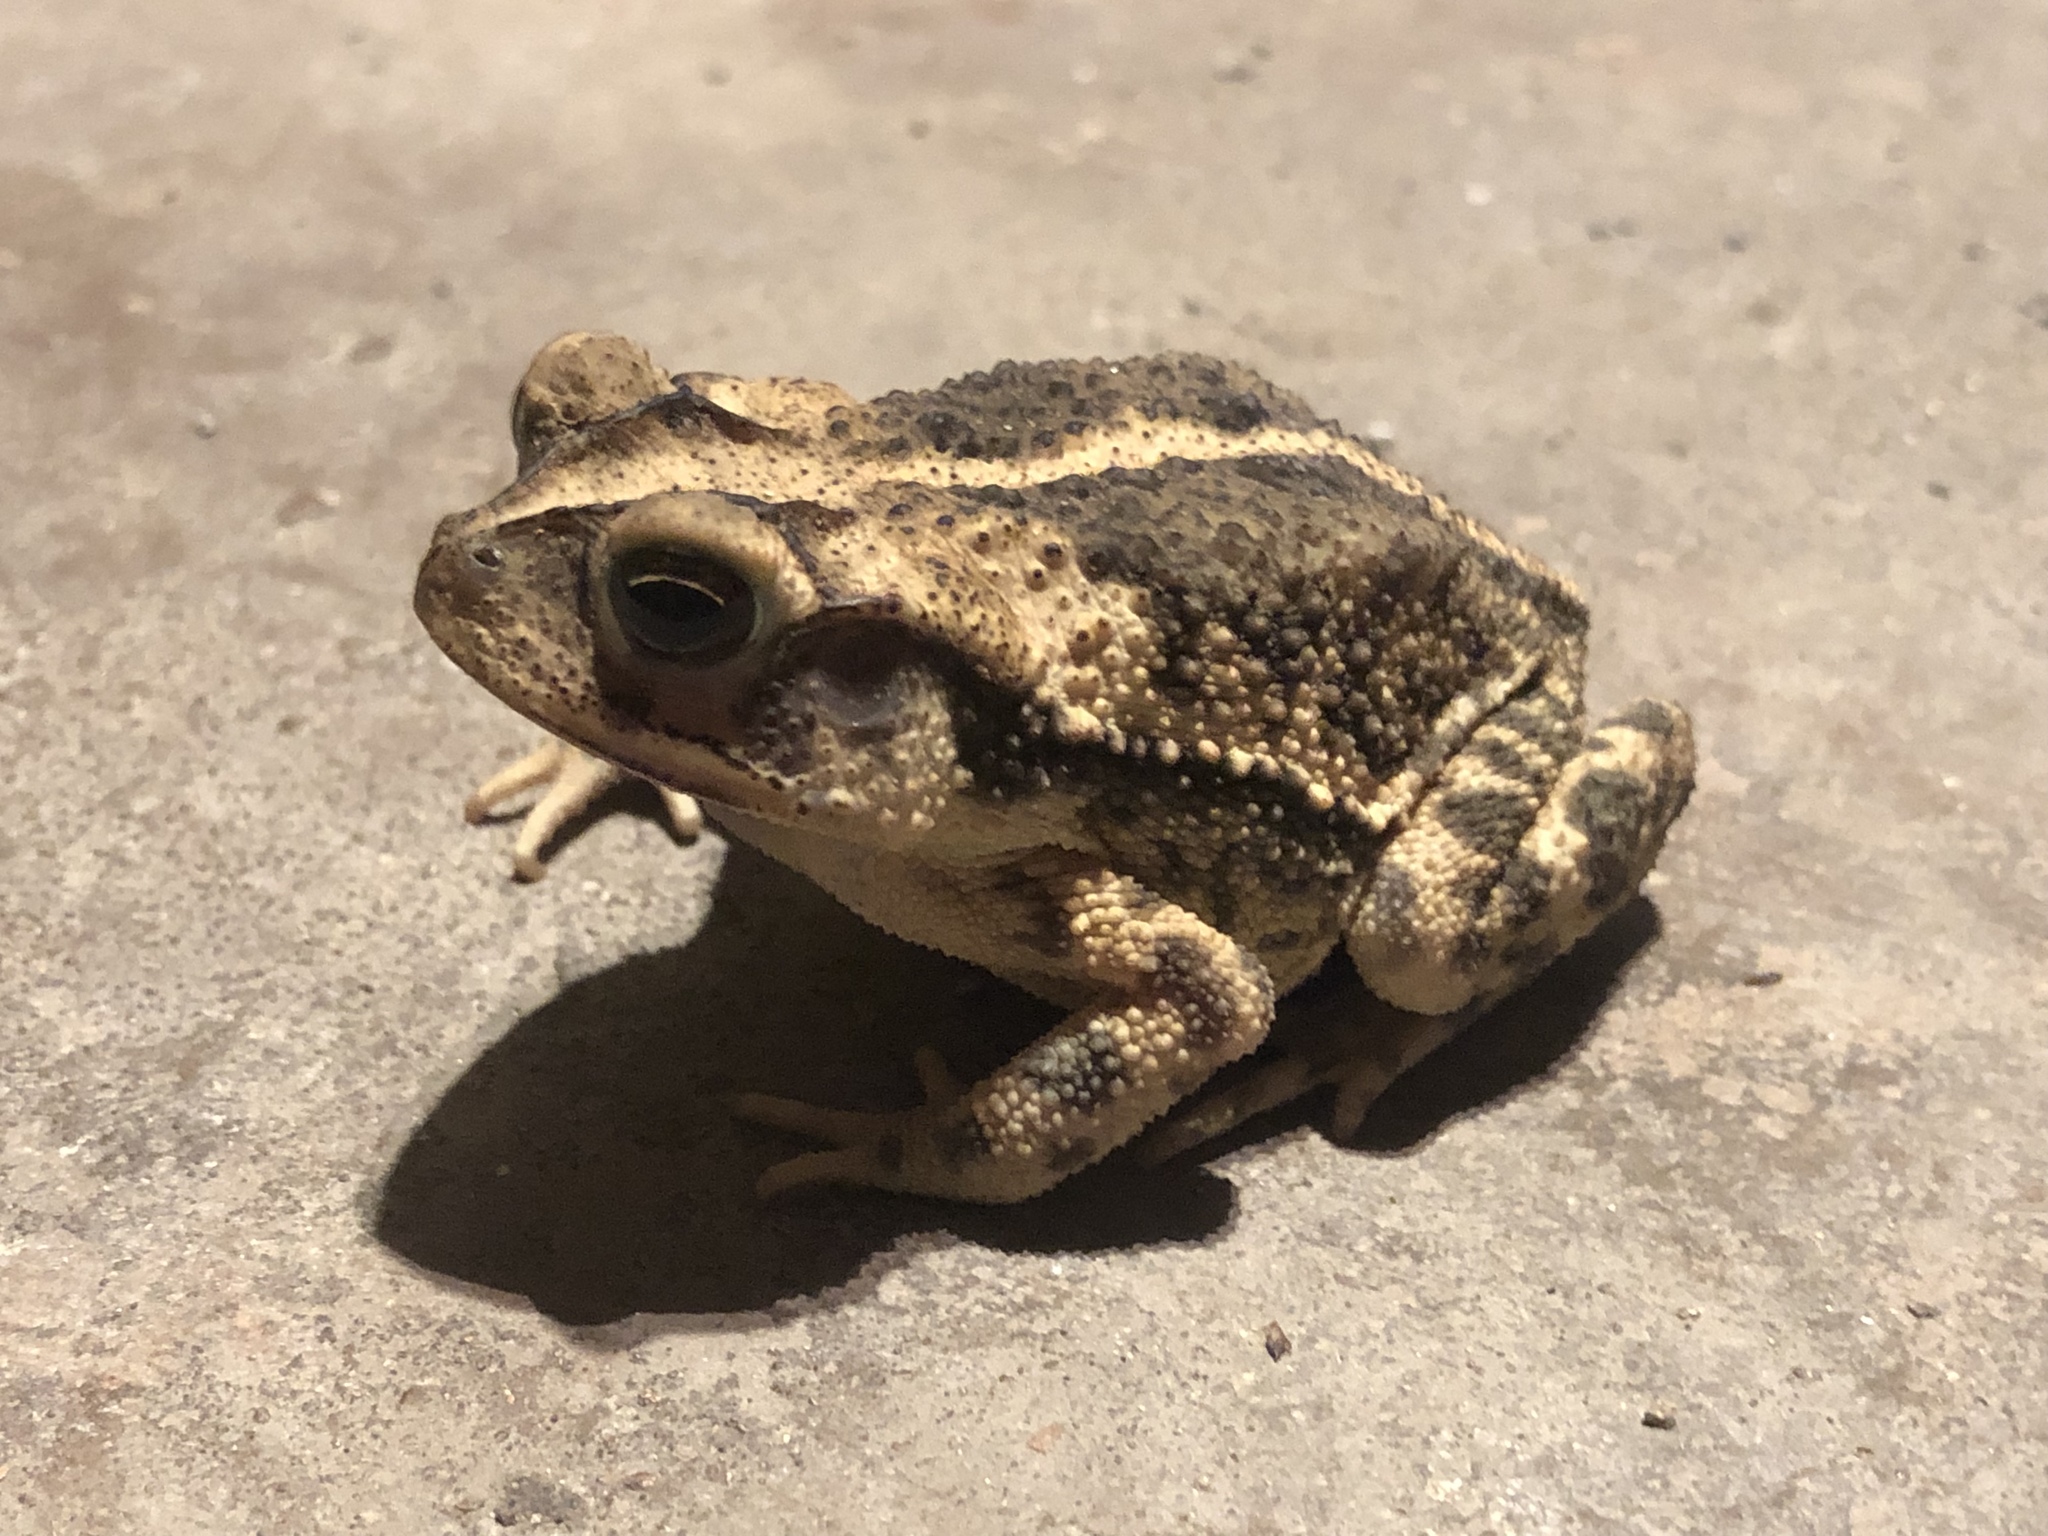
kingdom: Animalia
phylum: Chordata
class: Amphibia
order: Anura
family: Bufonidae
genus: Incilius
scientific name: Incilius nebulifer
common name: Gulf coast toad
